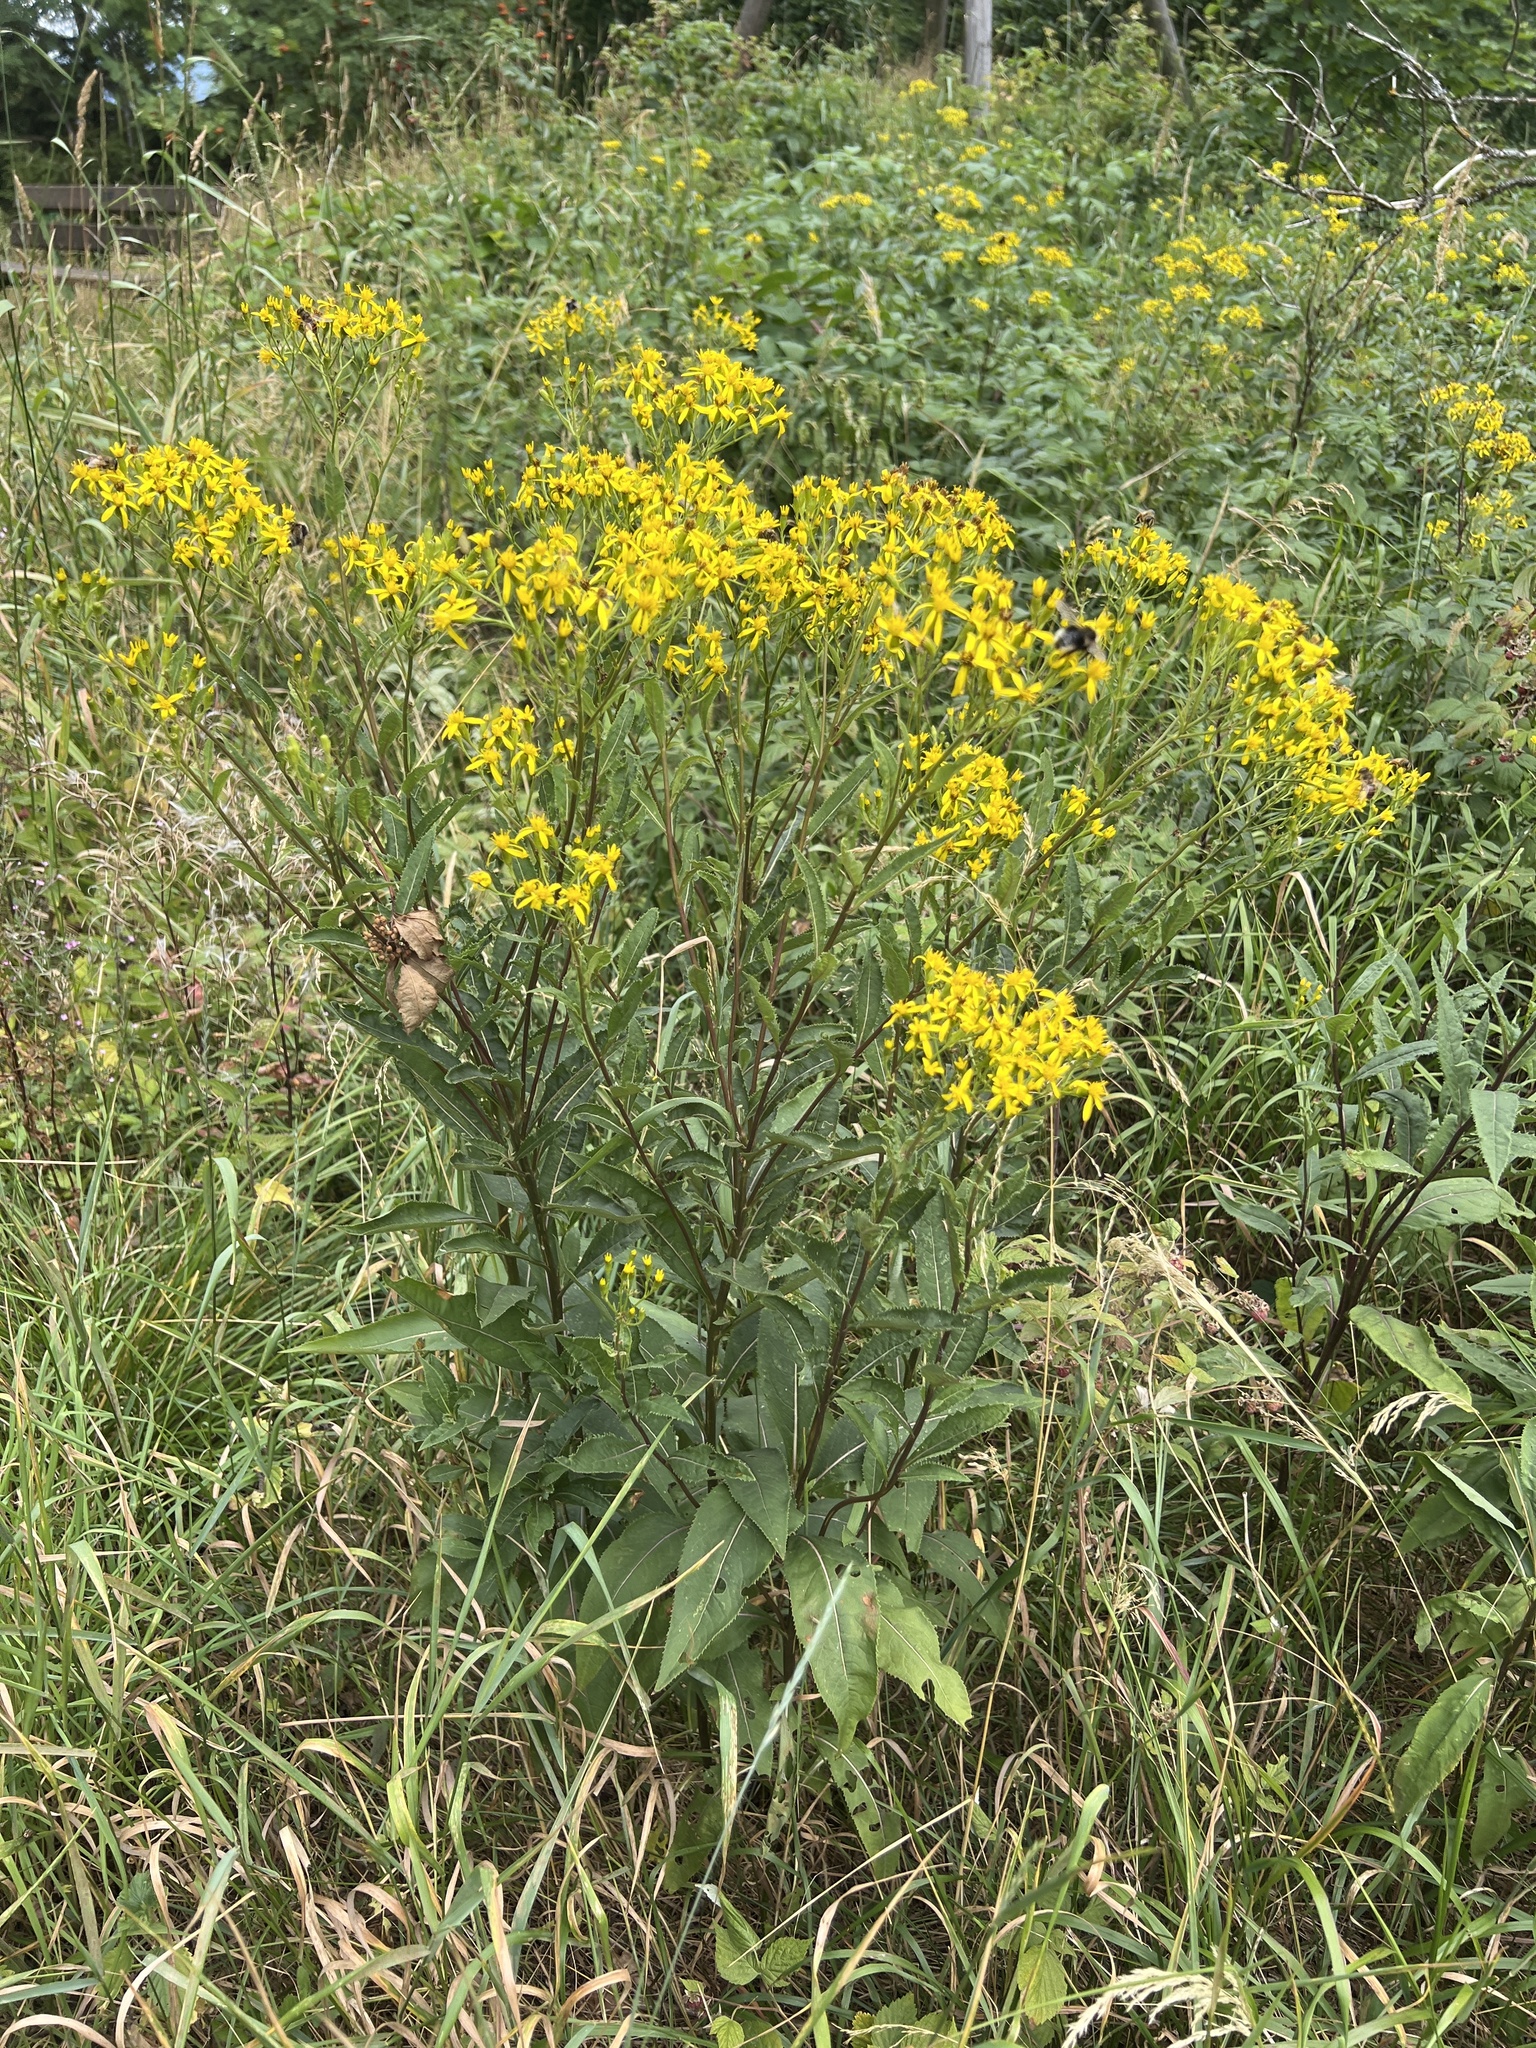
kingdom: Plantae
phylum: Tracheophyta
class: Magnoliopsida
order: Asterales
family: Asteraceae
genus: Senecio
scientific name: Senecio ovatus
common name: Wood ragwort
